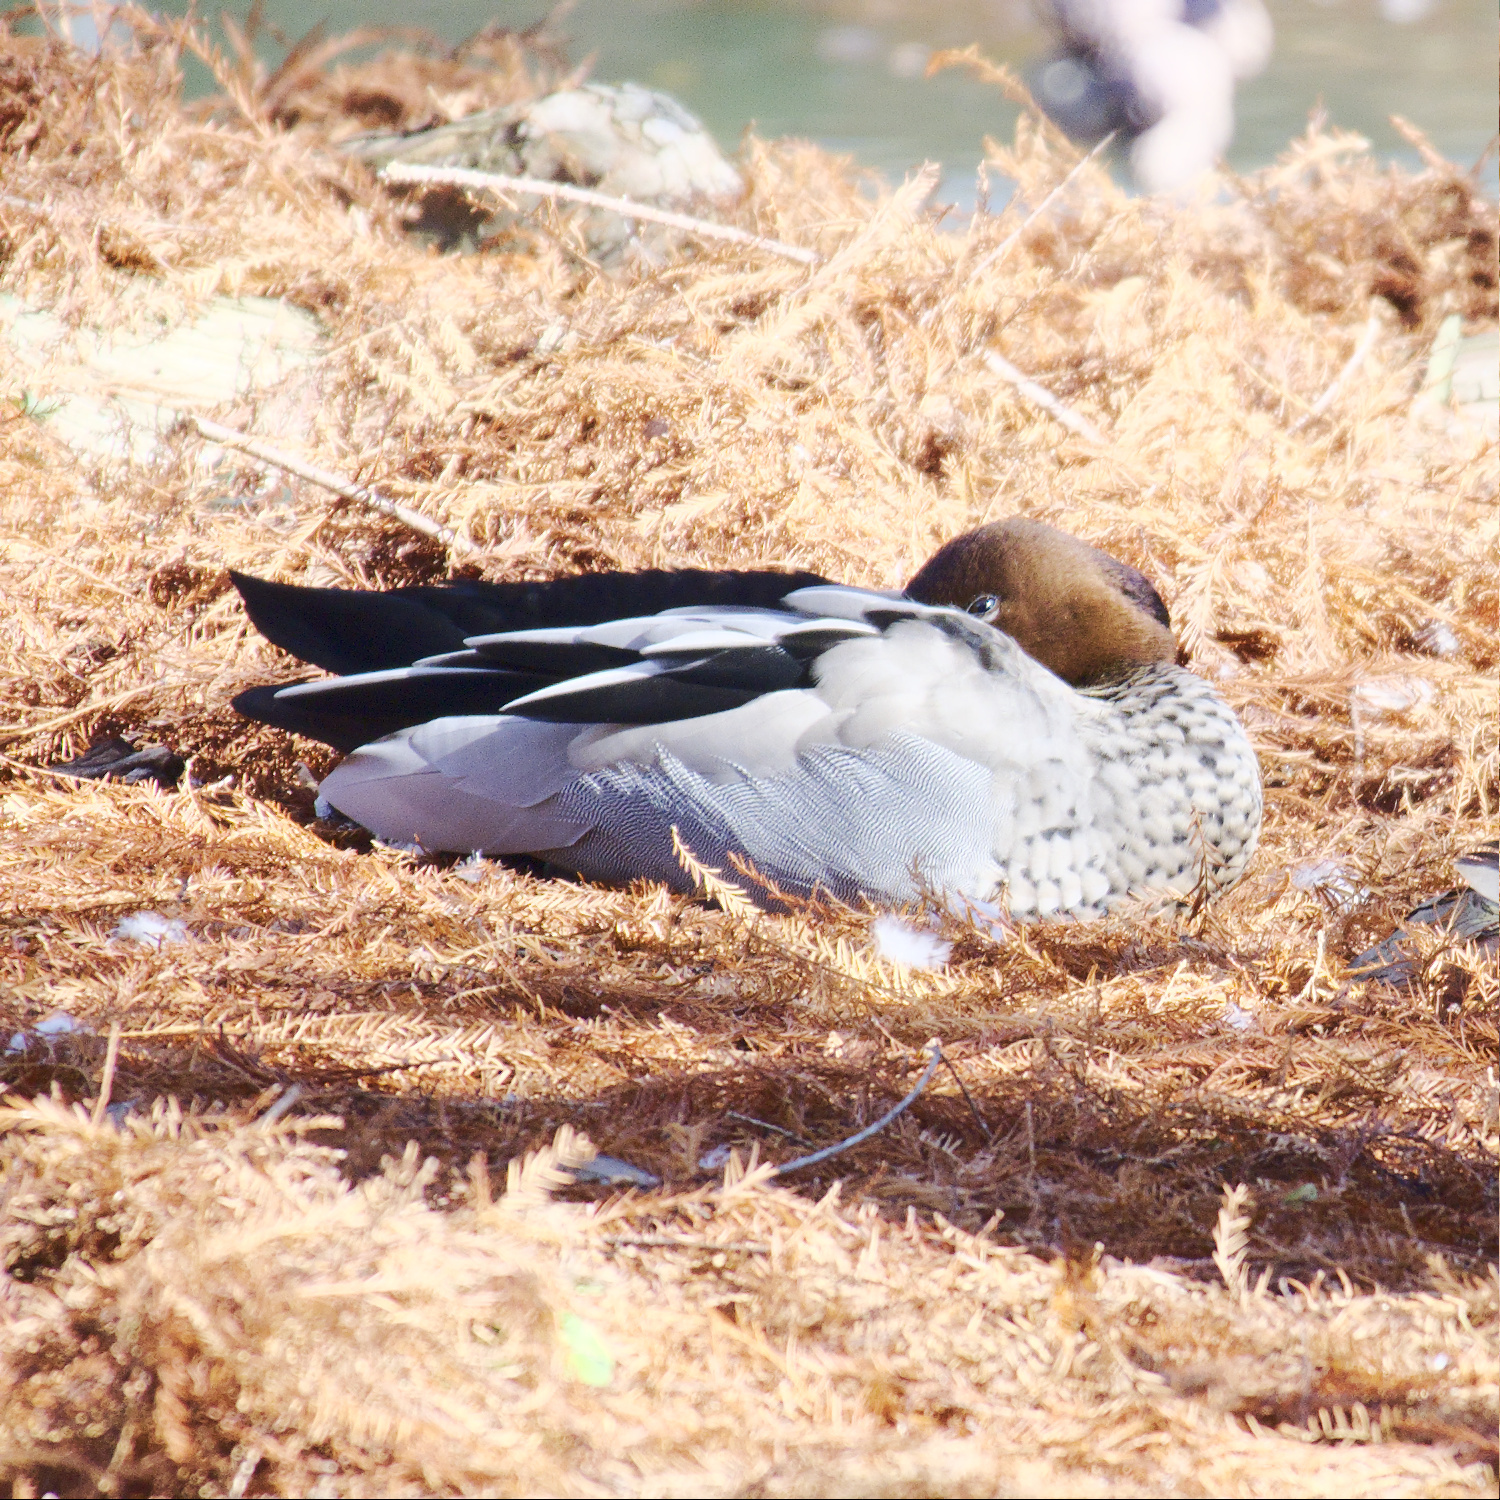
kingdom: Animalia
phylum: Chordata
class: Aves
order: Anseriformes
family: Anatidae
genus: Chenonetta
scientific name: Chenonetta jubata
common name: Maned duck
